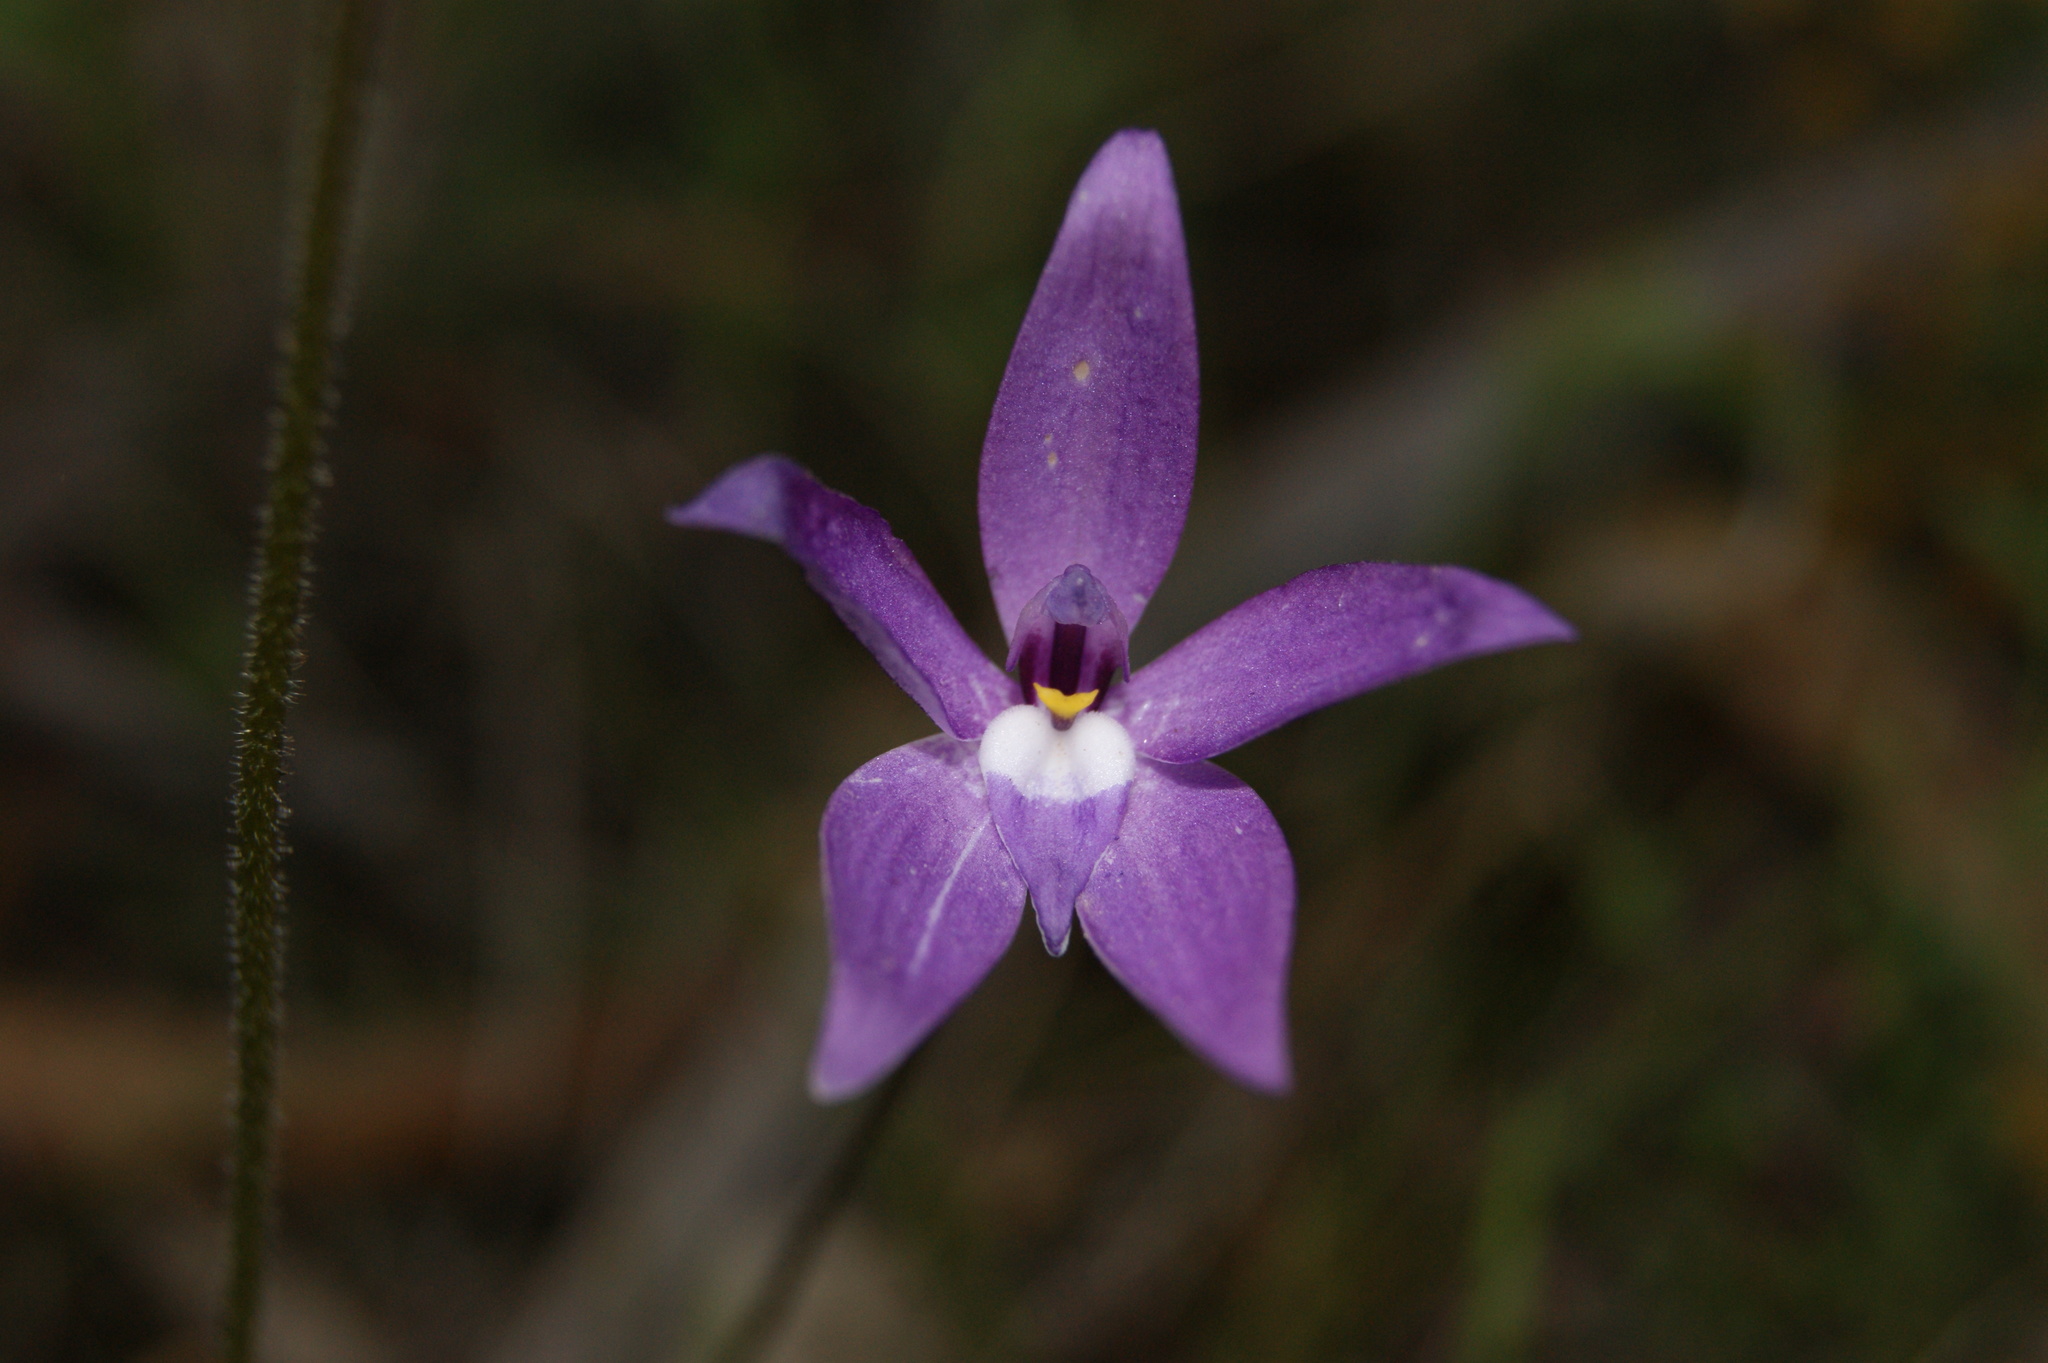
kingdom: Plantae
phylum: Tracheophyta
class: Liliopsida
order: Asparagales
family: Orchidaceae
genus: Caladenia
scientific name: Caladenia major
